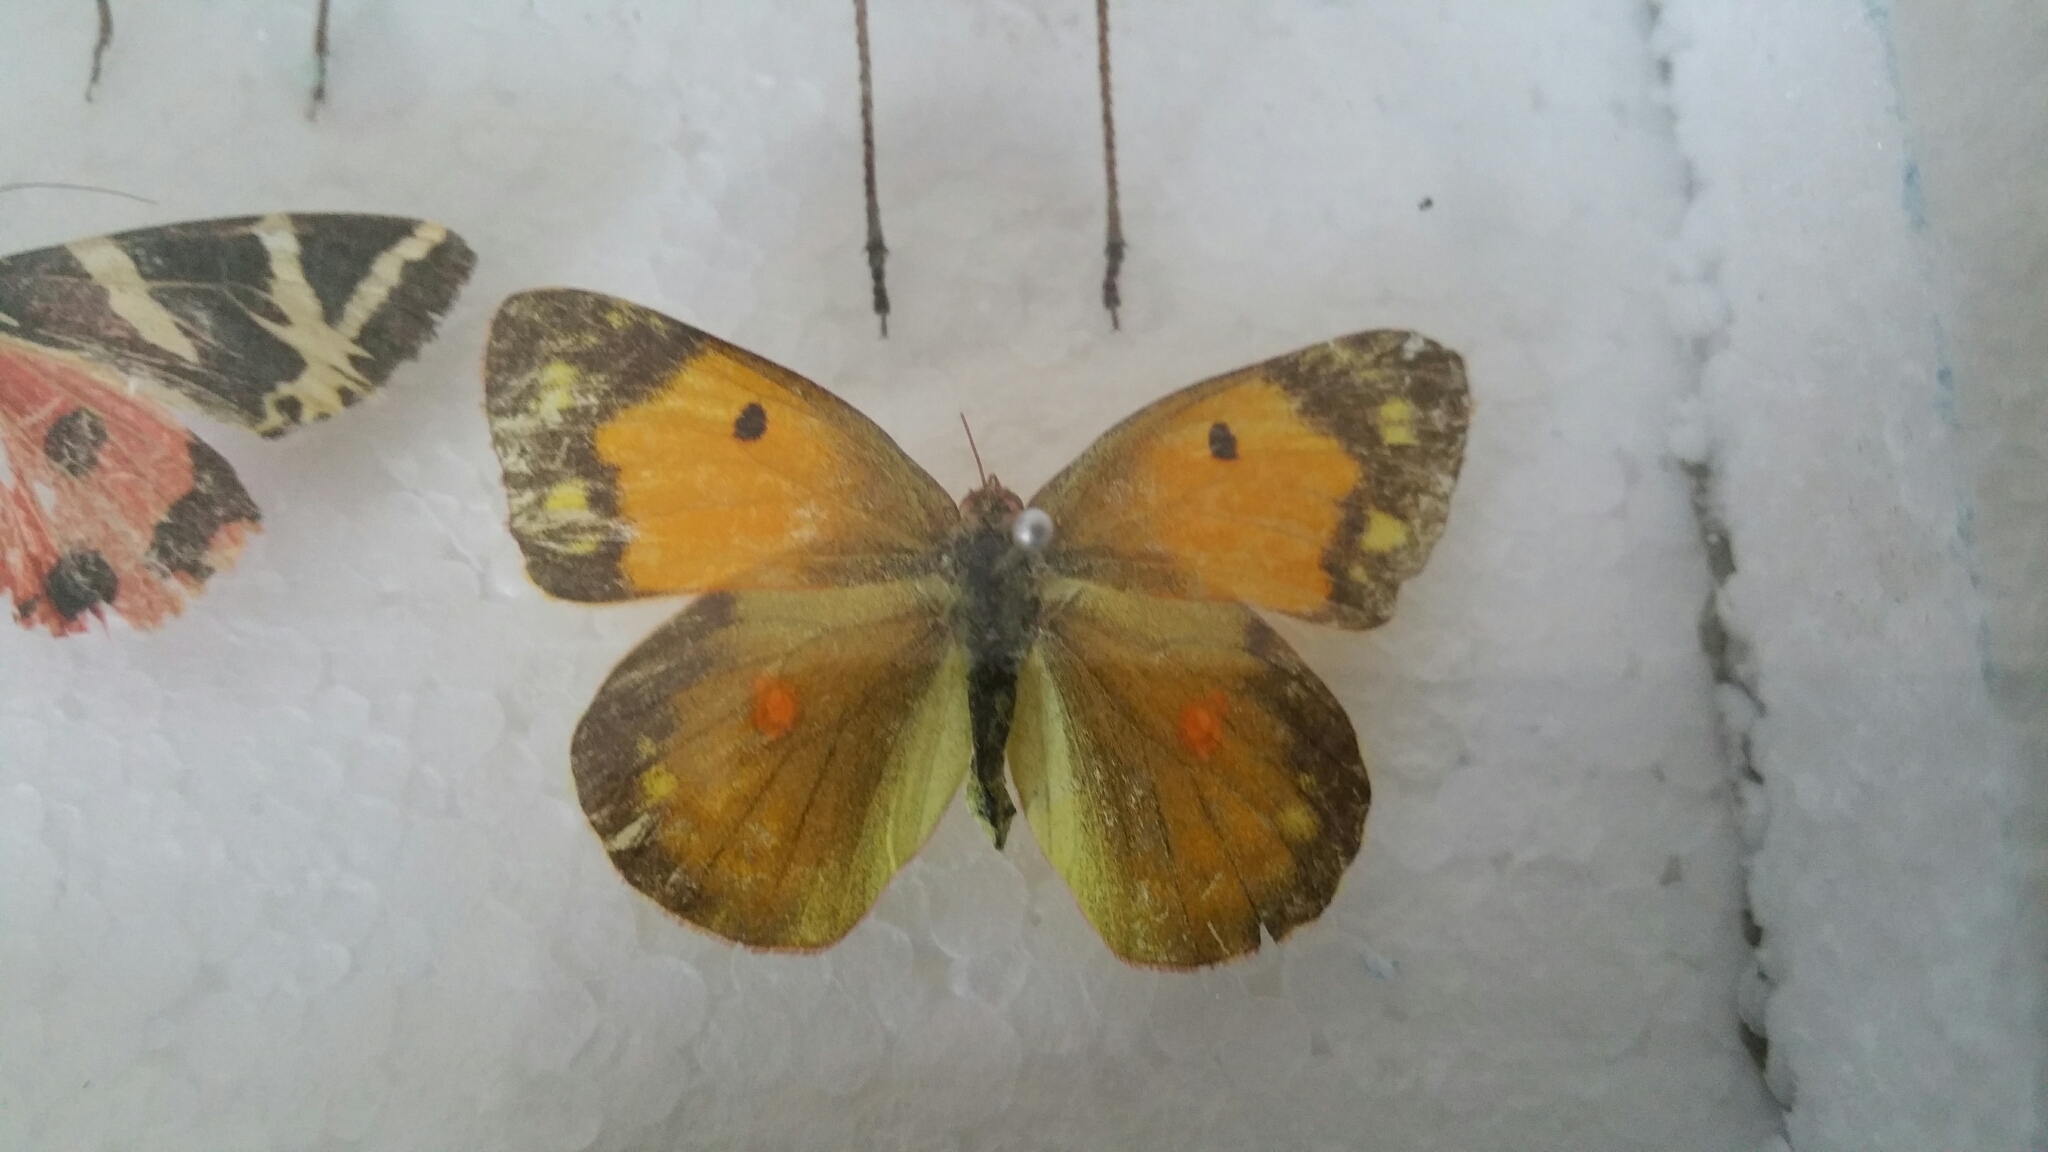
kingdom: Animalia
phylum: Arthropoda
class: Insecta
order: Lepidoptera
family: Pieridae
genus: Colias
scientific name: Colias croceus
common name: Clouded yellow
